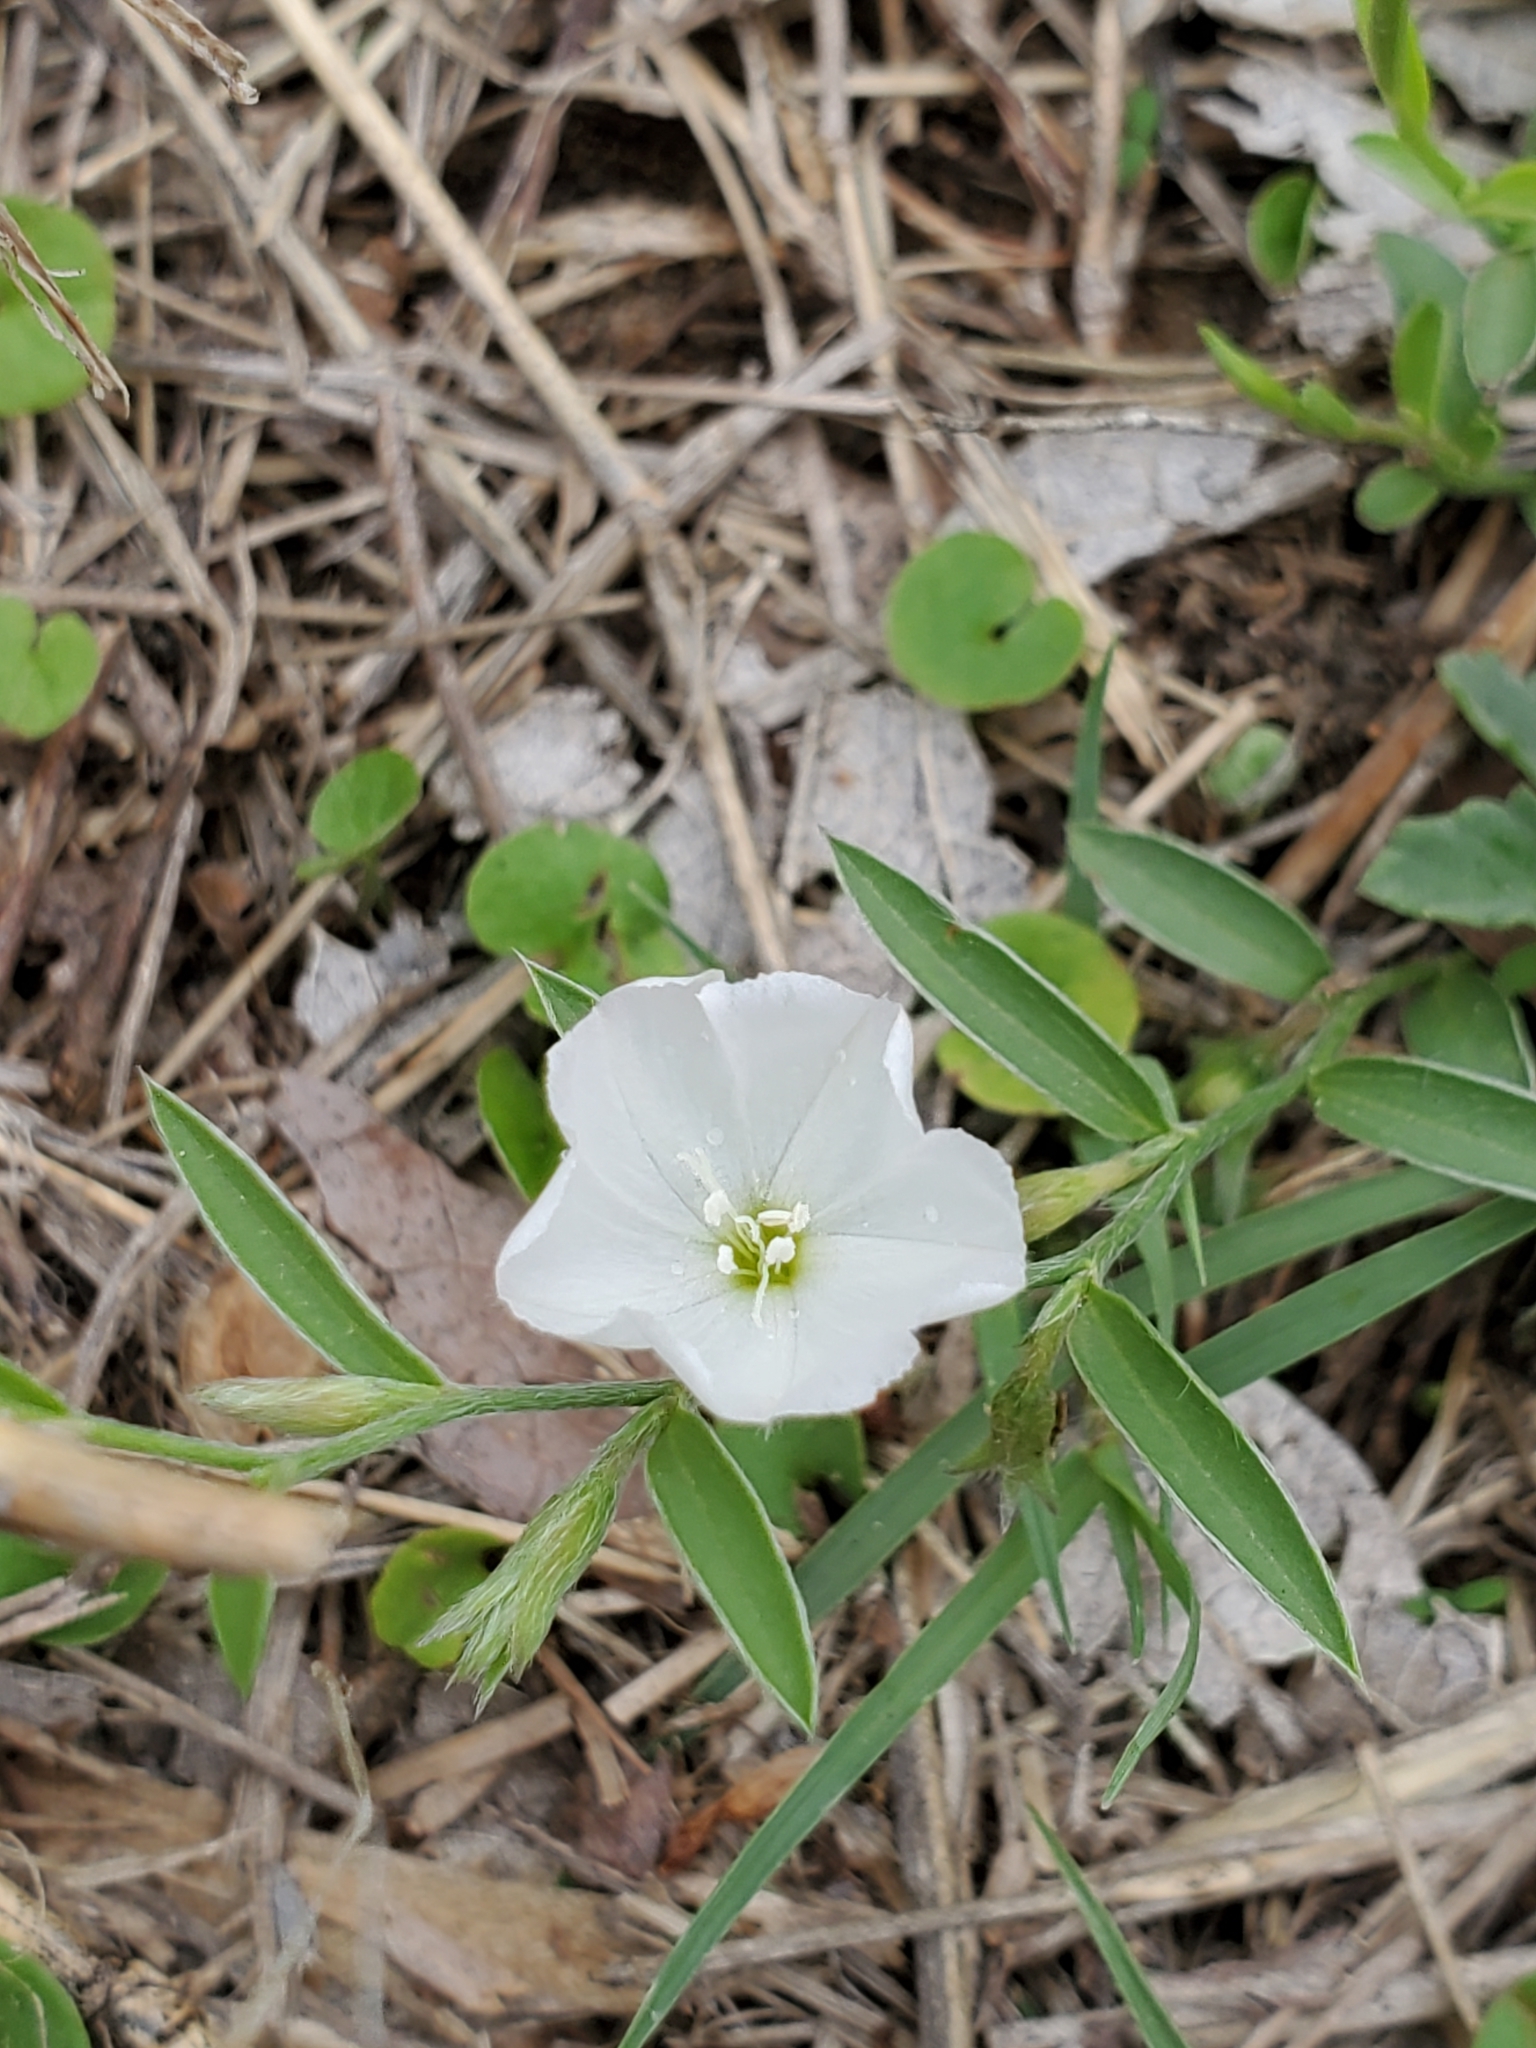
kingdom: Plantae
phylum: Tracheophyta
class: Magnoliopsida
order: Solanales
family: Convolvulaceae
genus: Evolvulus
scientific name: Evolvulus sericeus
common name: Blue dots
